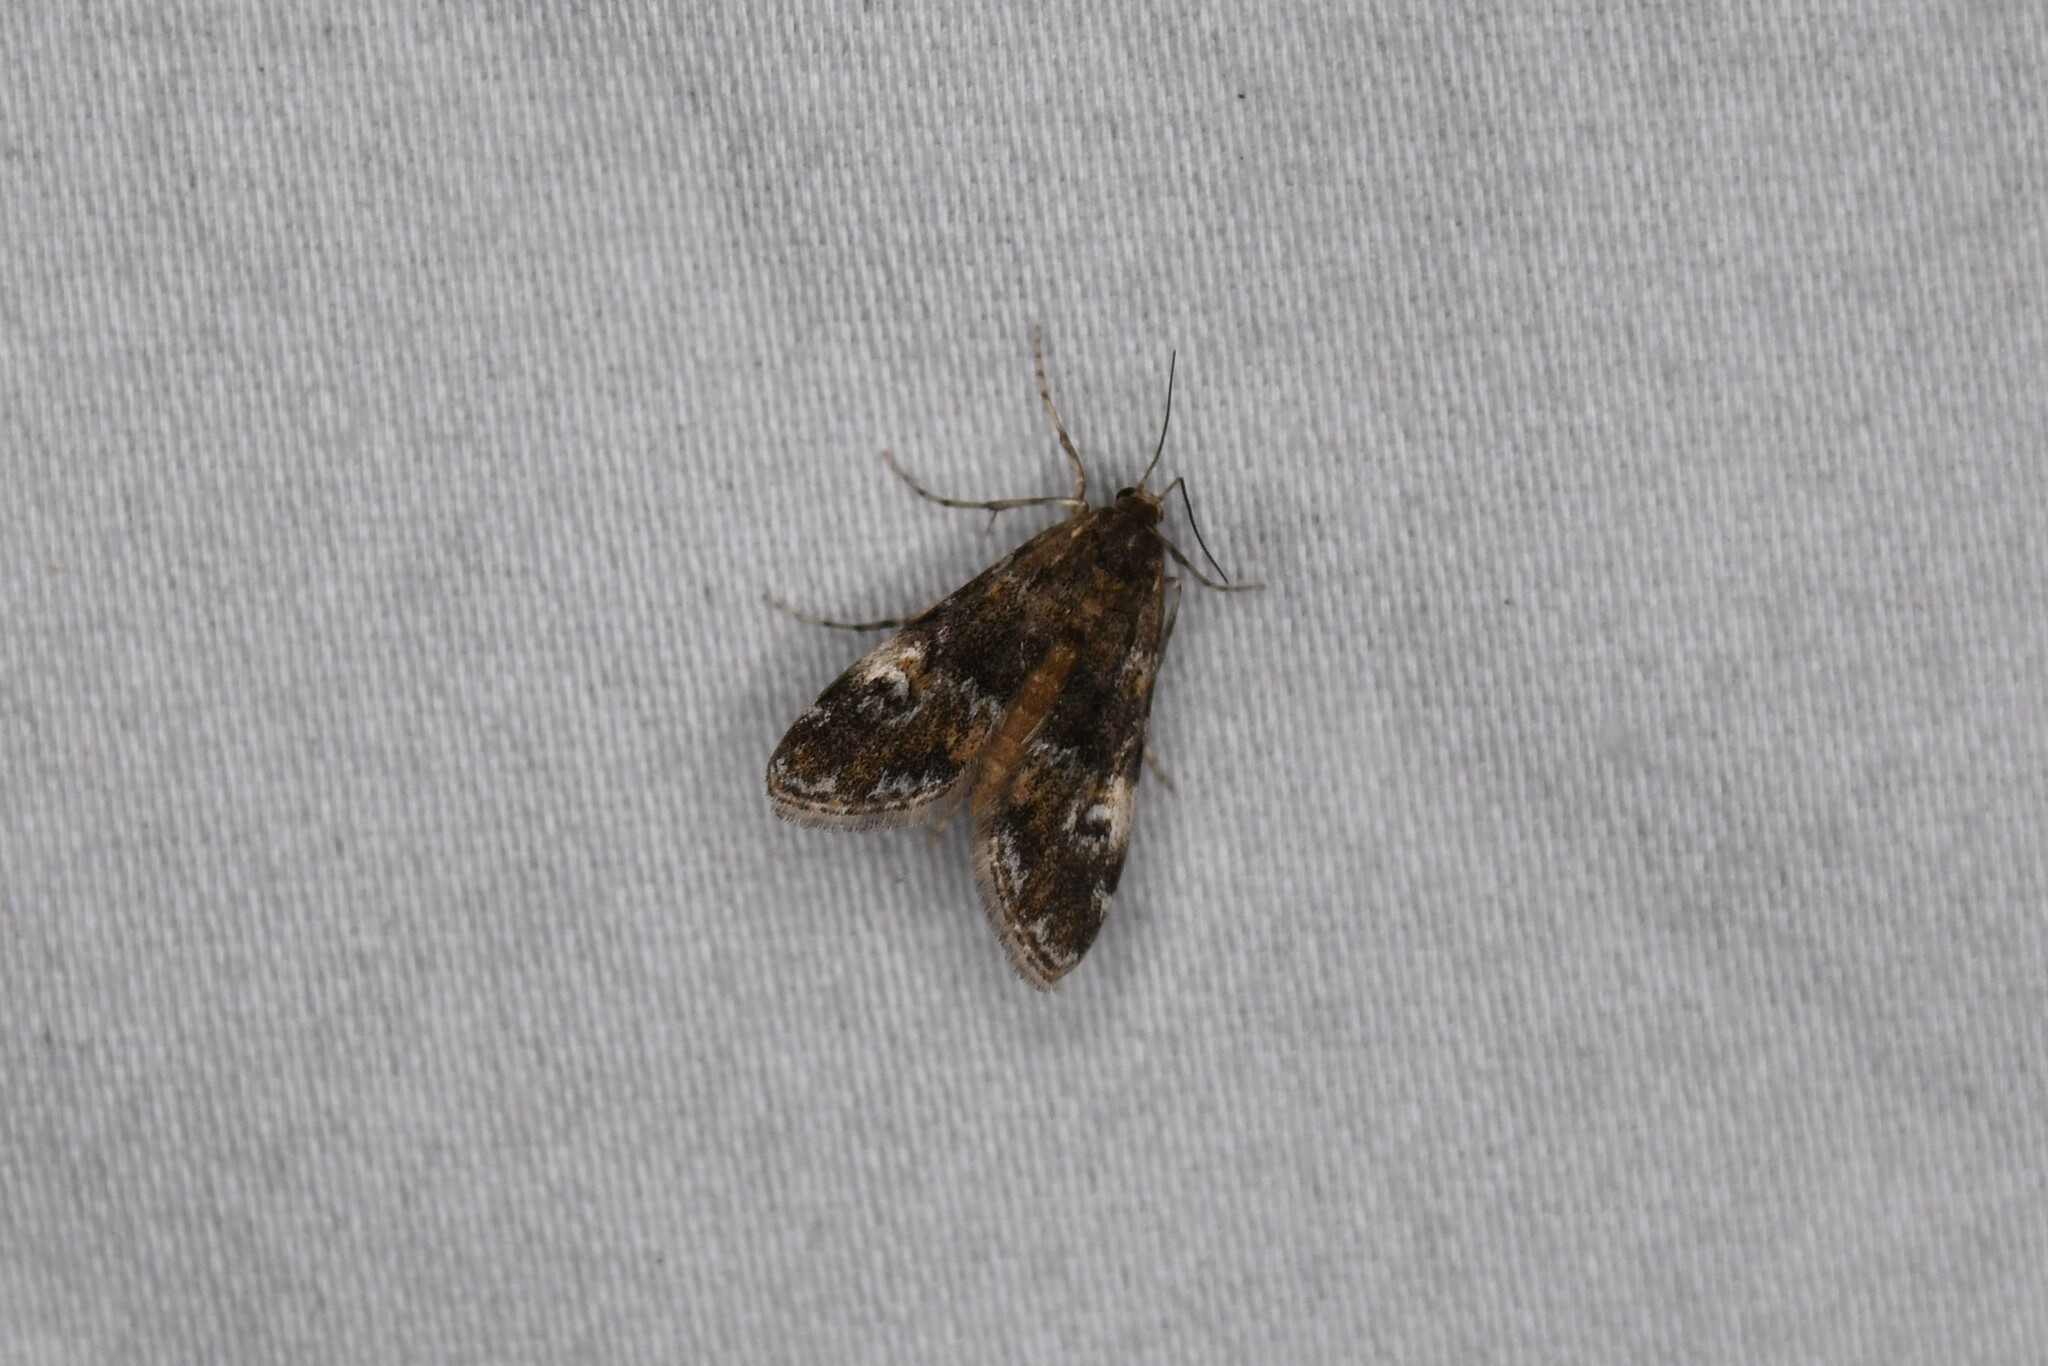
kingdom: Animalia
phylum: Arthropoda
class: Insecta
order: Lepidoptera
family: Crambidae
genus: Elophila
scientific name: Elophila obliteralis
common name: Waterlily leafcutter moth
